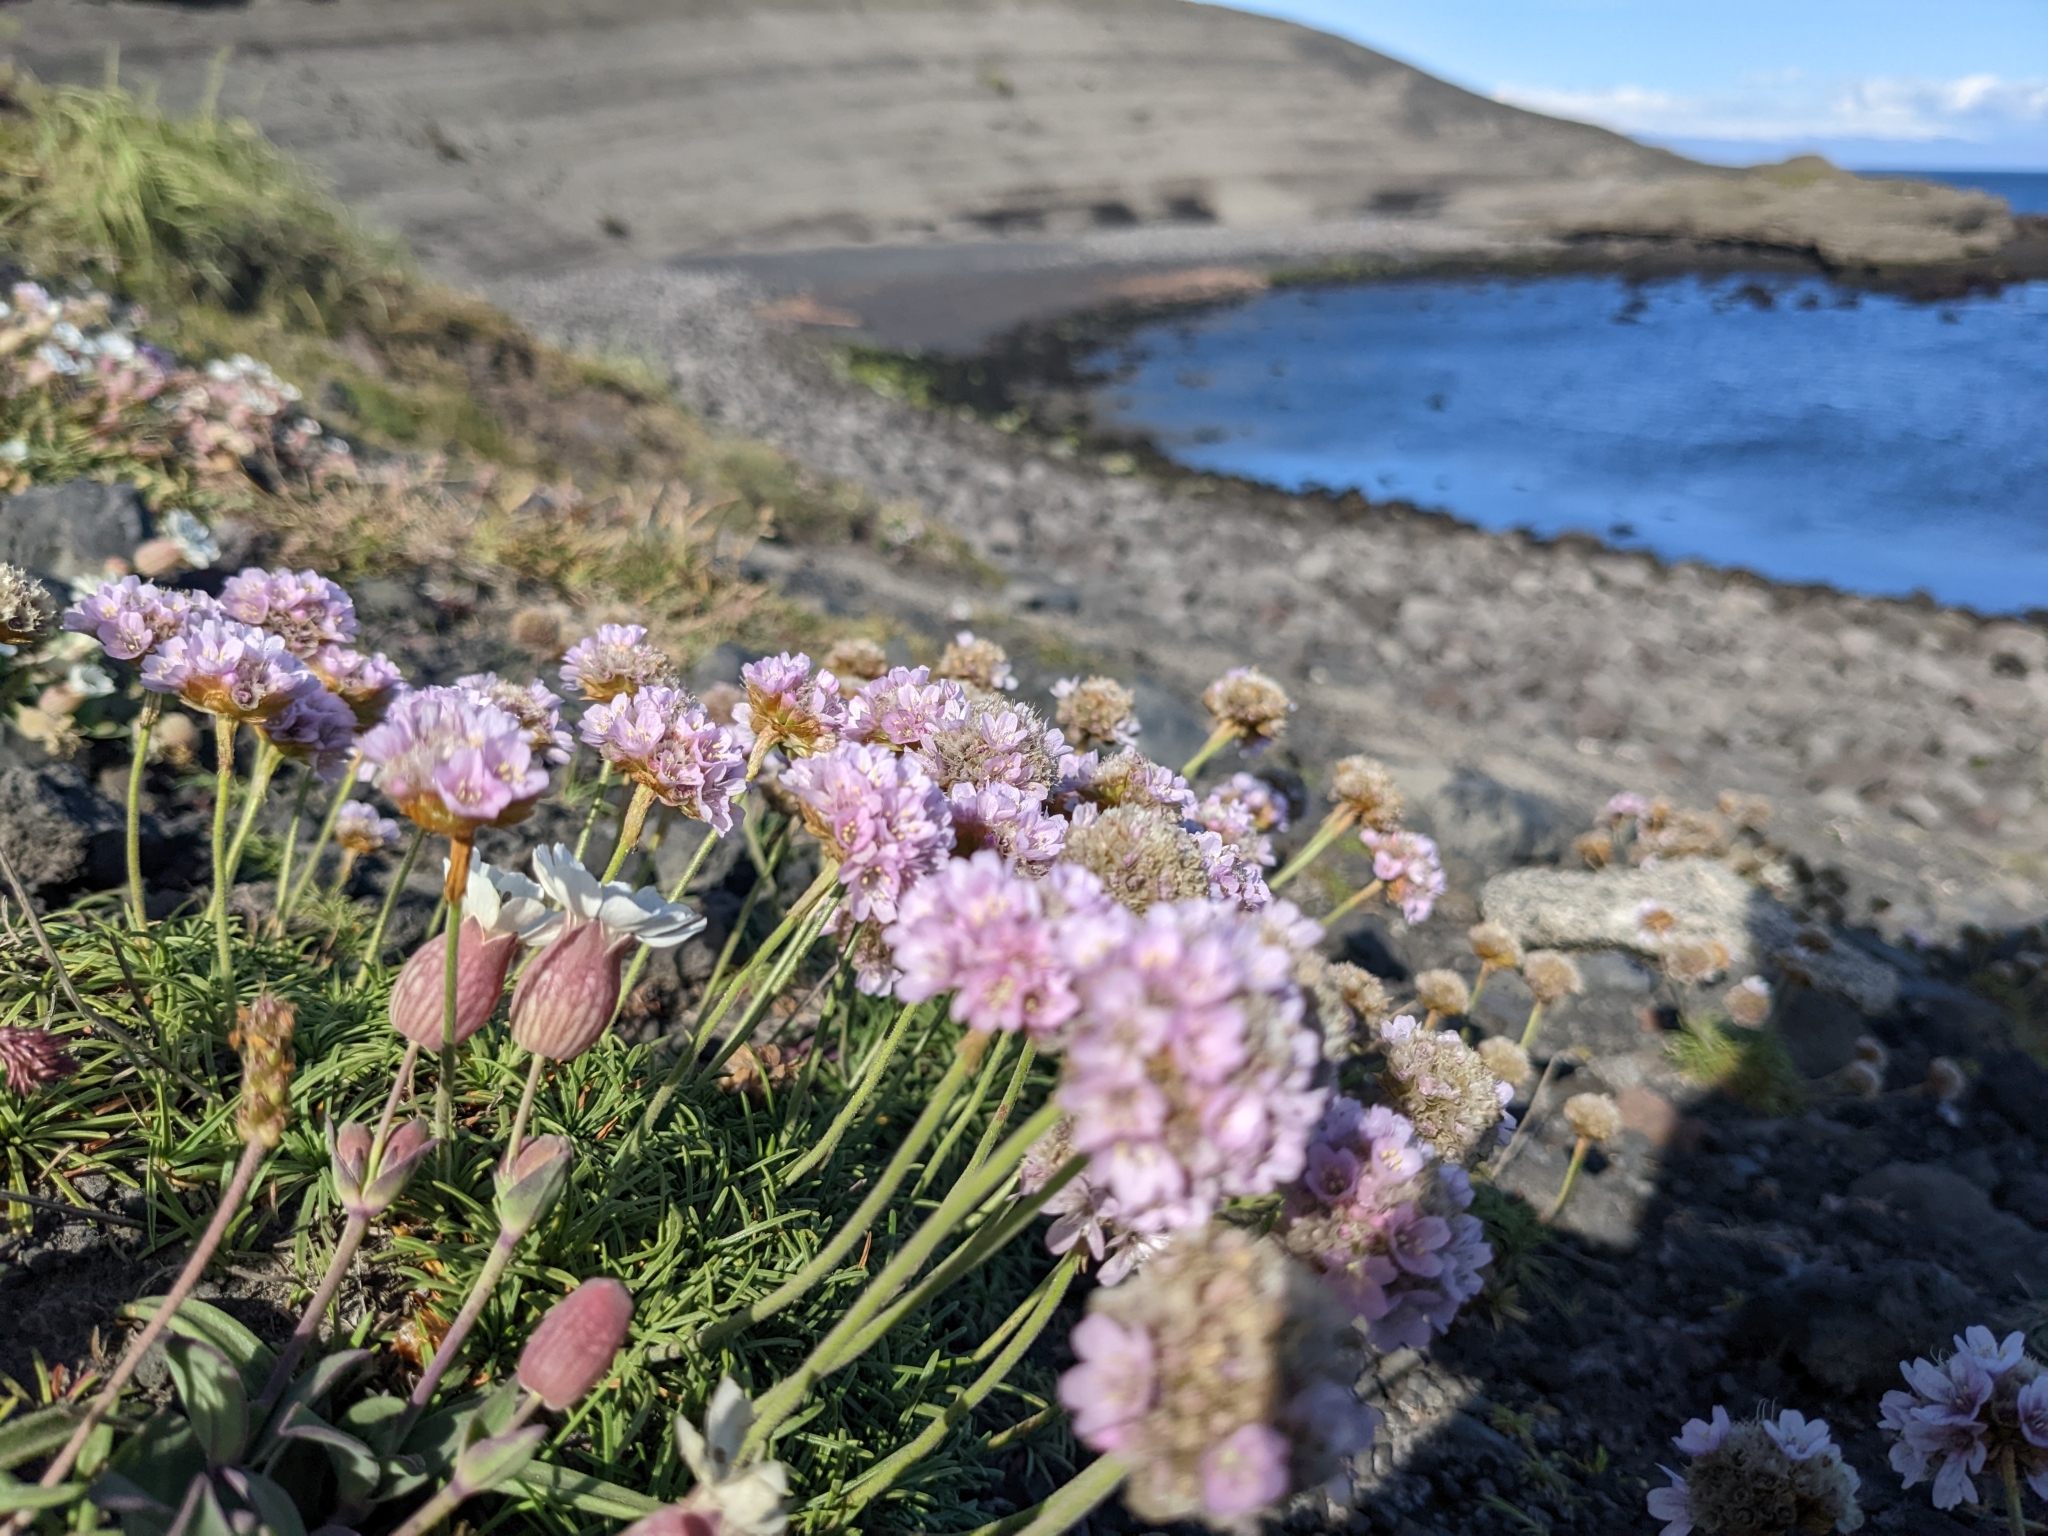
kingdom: Plantae
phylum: Tracheophyta
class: Magnoliopsida
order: Caryophyllales
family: Plumbaginaceae
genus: Armeria
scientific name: Armeria maritima
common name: Thrift
